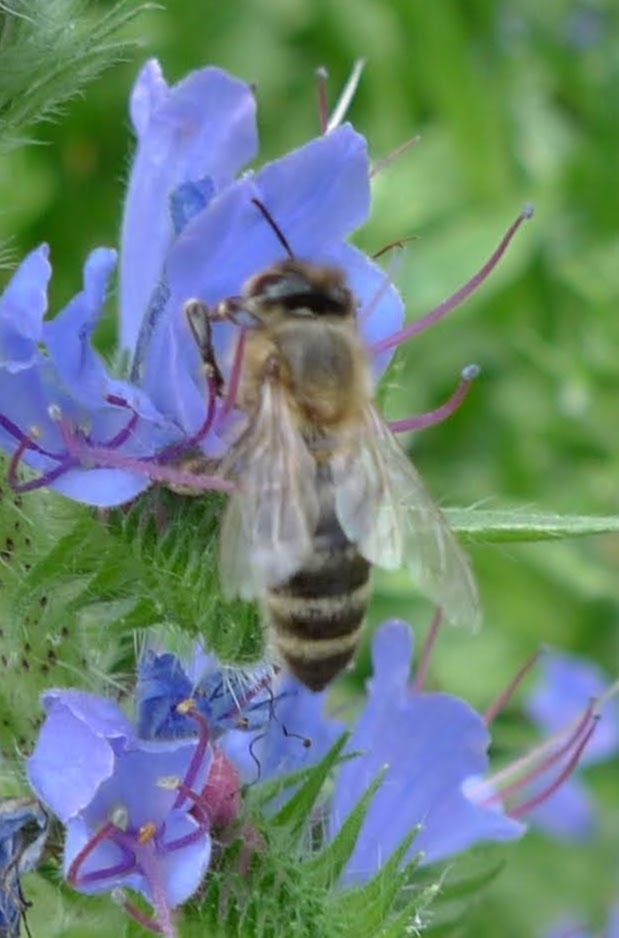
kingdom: Animalia
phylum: Arthropoda
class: Insecta
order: Hymenoptera
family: Apidae
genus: Apis
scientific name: Apis mellifera
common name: Honey bee
